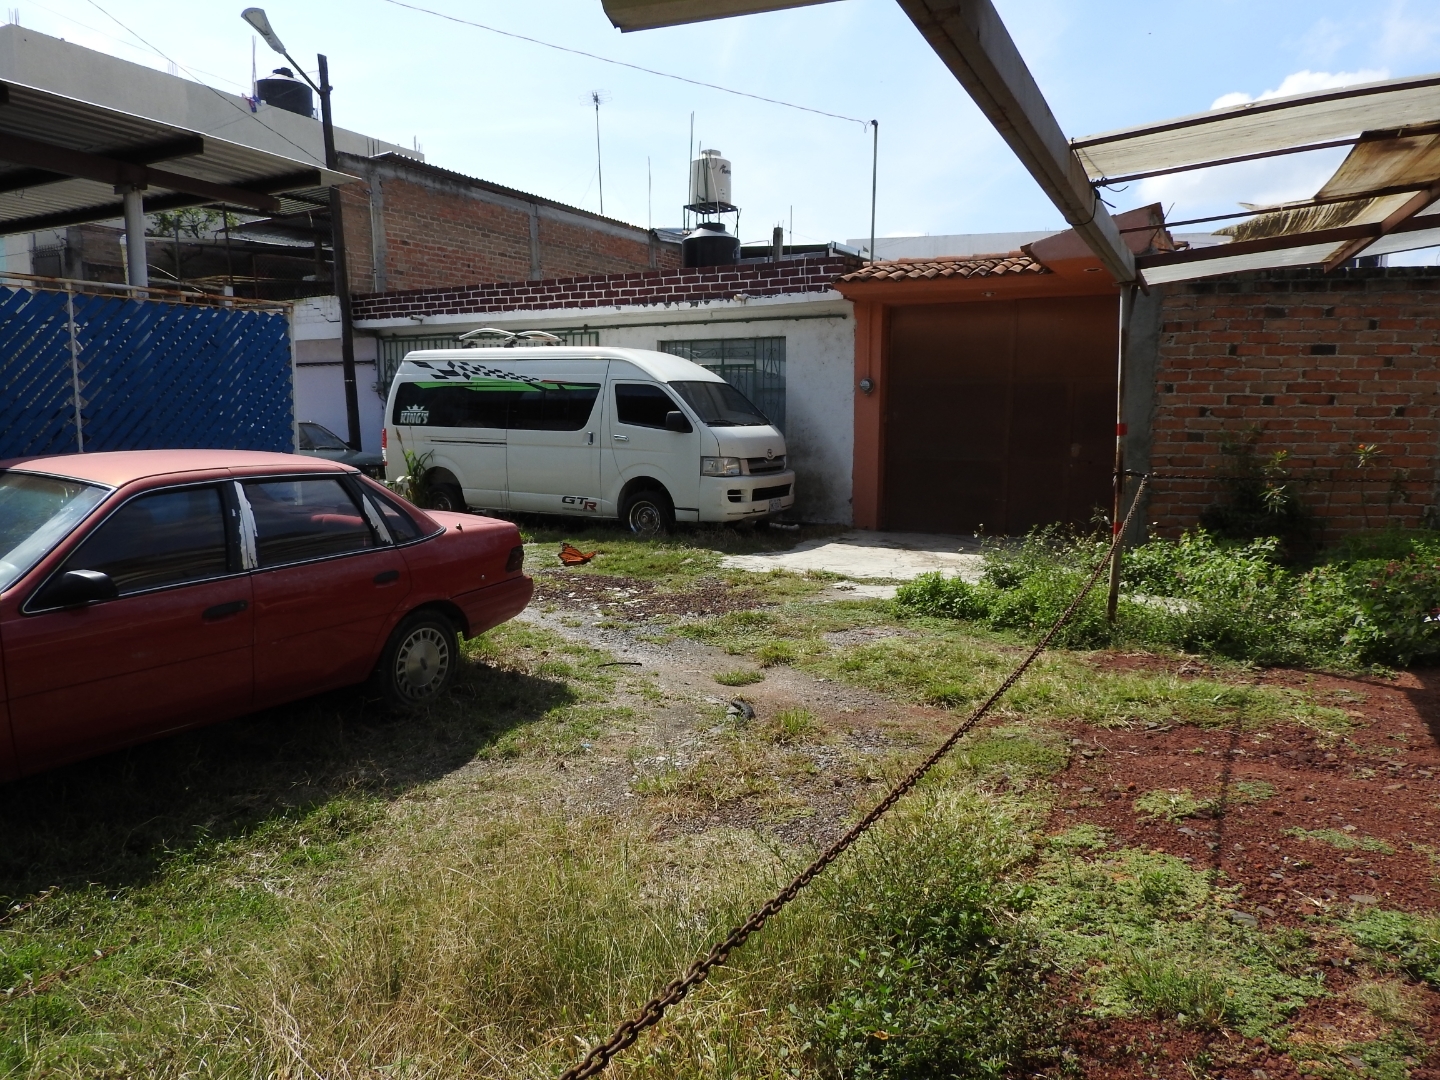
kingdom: Animalia
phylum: Arthropoda
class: Insecta
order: Lepidoptera
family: Nymphalidae
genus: Danaus
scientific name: Danaus plexippus
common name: Monarch
